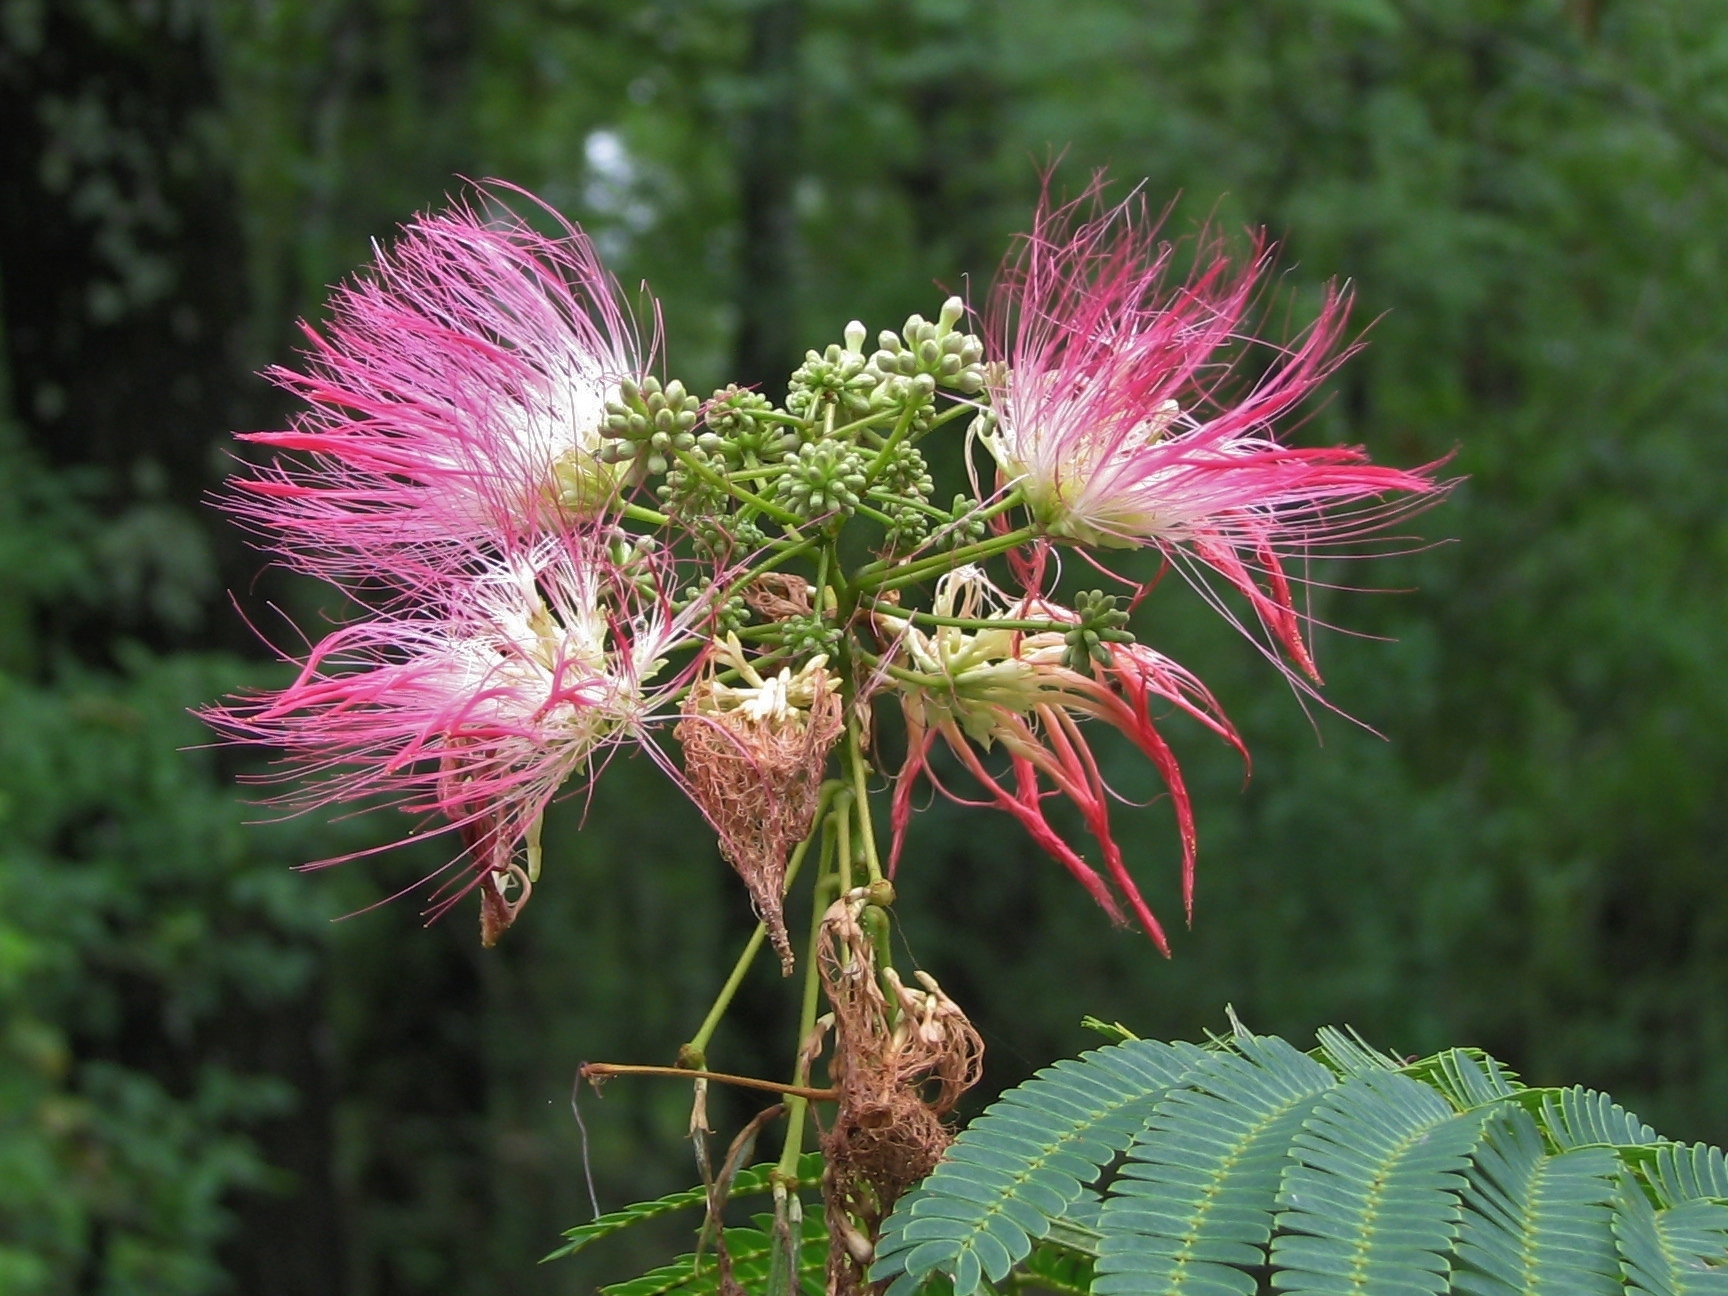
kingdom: Plantae
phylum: Tracheophyta
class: Magnoliopsida
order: Fabales
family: Fabaceae
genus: Albizia
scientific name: Albizia julibrissin
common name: Silktree
